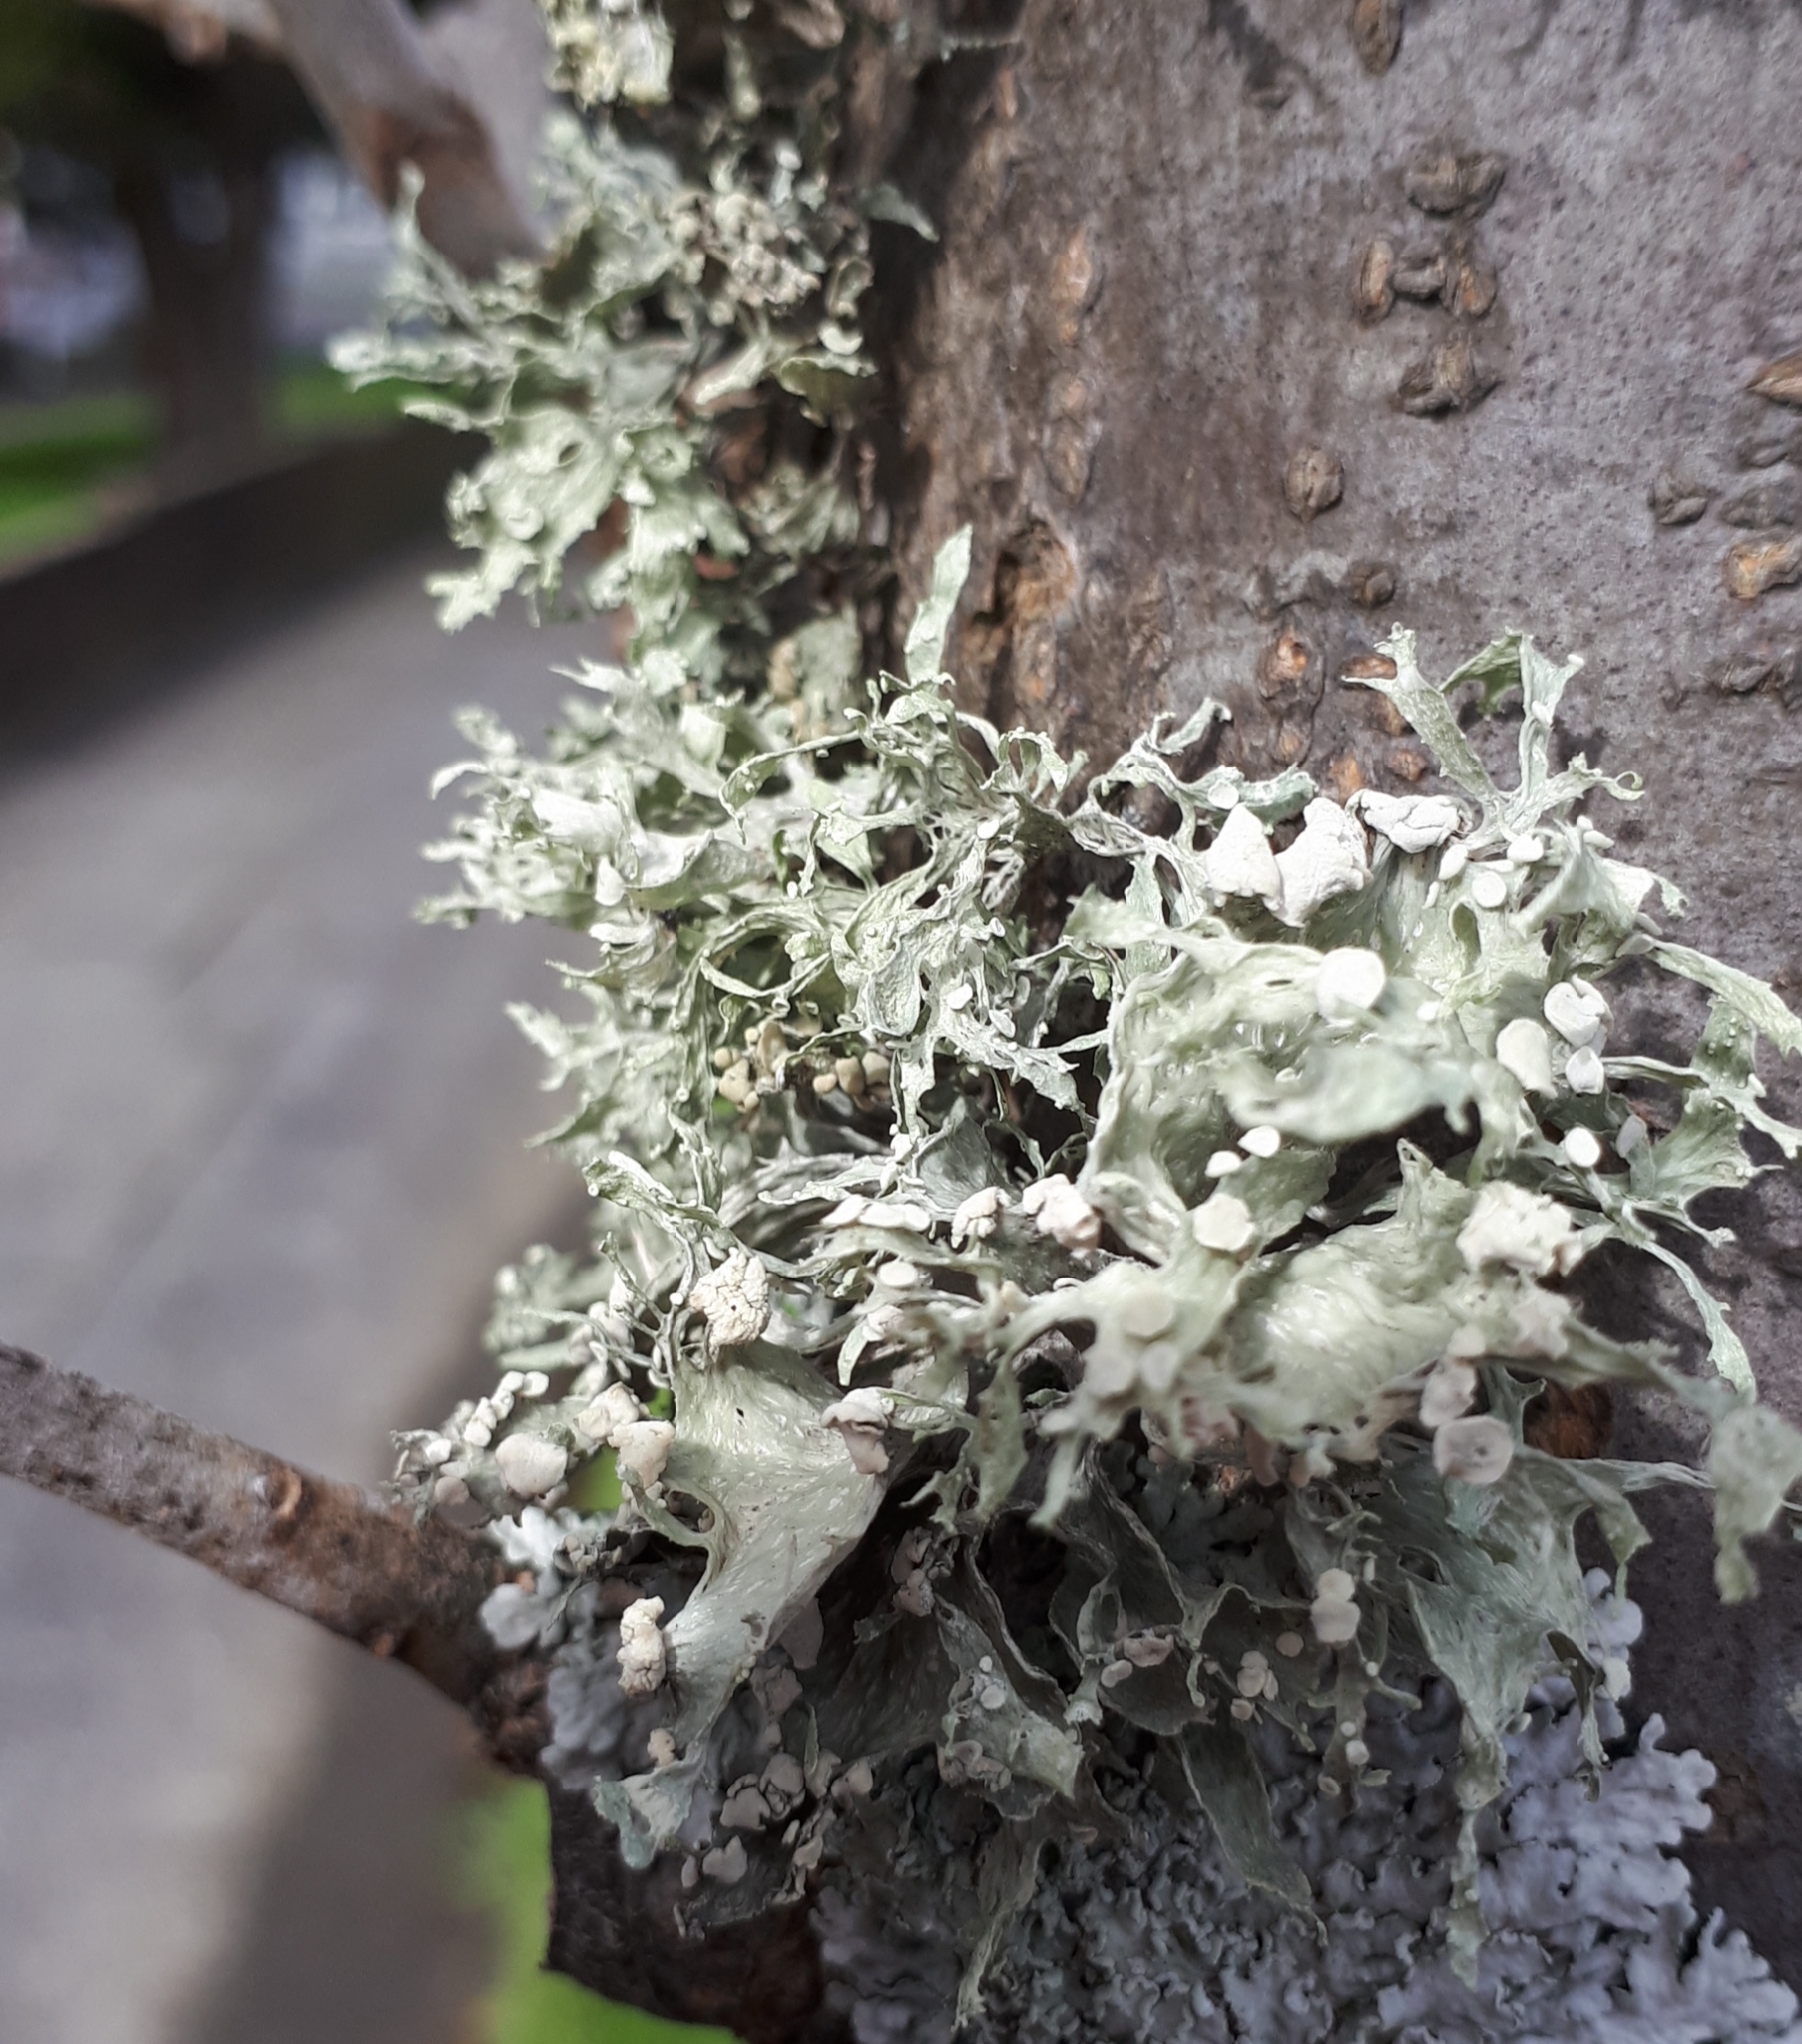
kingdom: Fungi
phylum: Ascomycota
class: Lecanoromycetes
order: Lecanorales
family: Ramalinaceae
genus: Ramalina
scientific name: Ramalina celastri
